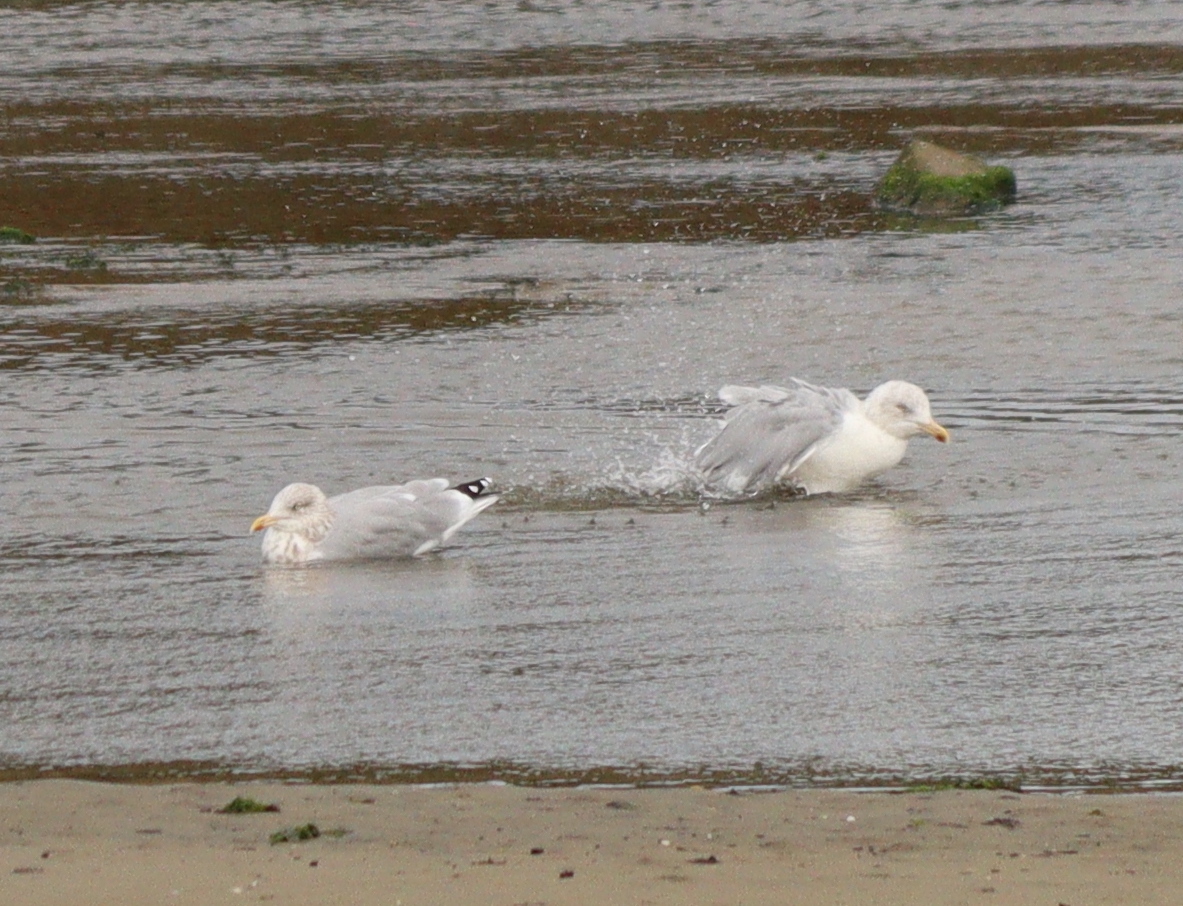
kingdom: Animalia
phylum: Chordata
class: Aves
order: Charadriiformes
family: Laridae
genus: Larus
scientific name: Larus argentatus
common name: Herring gull
